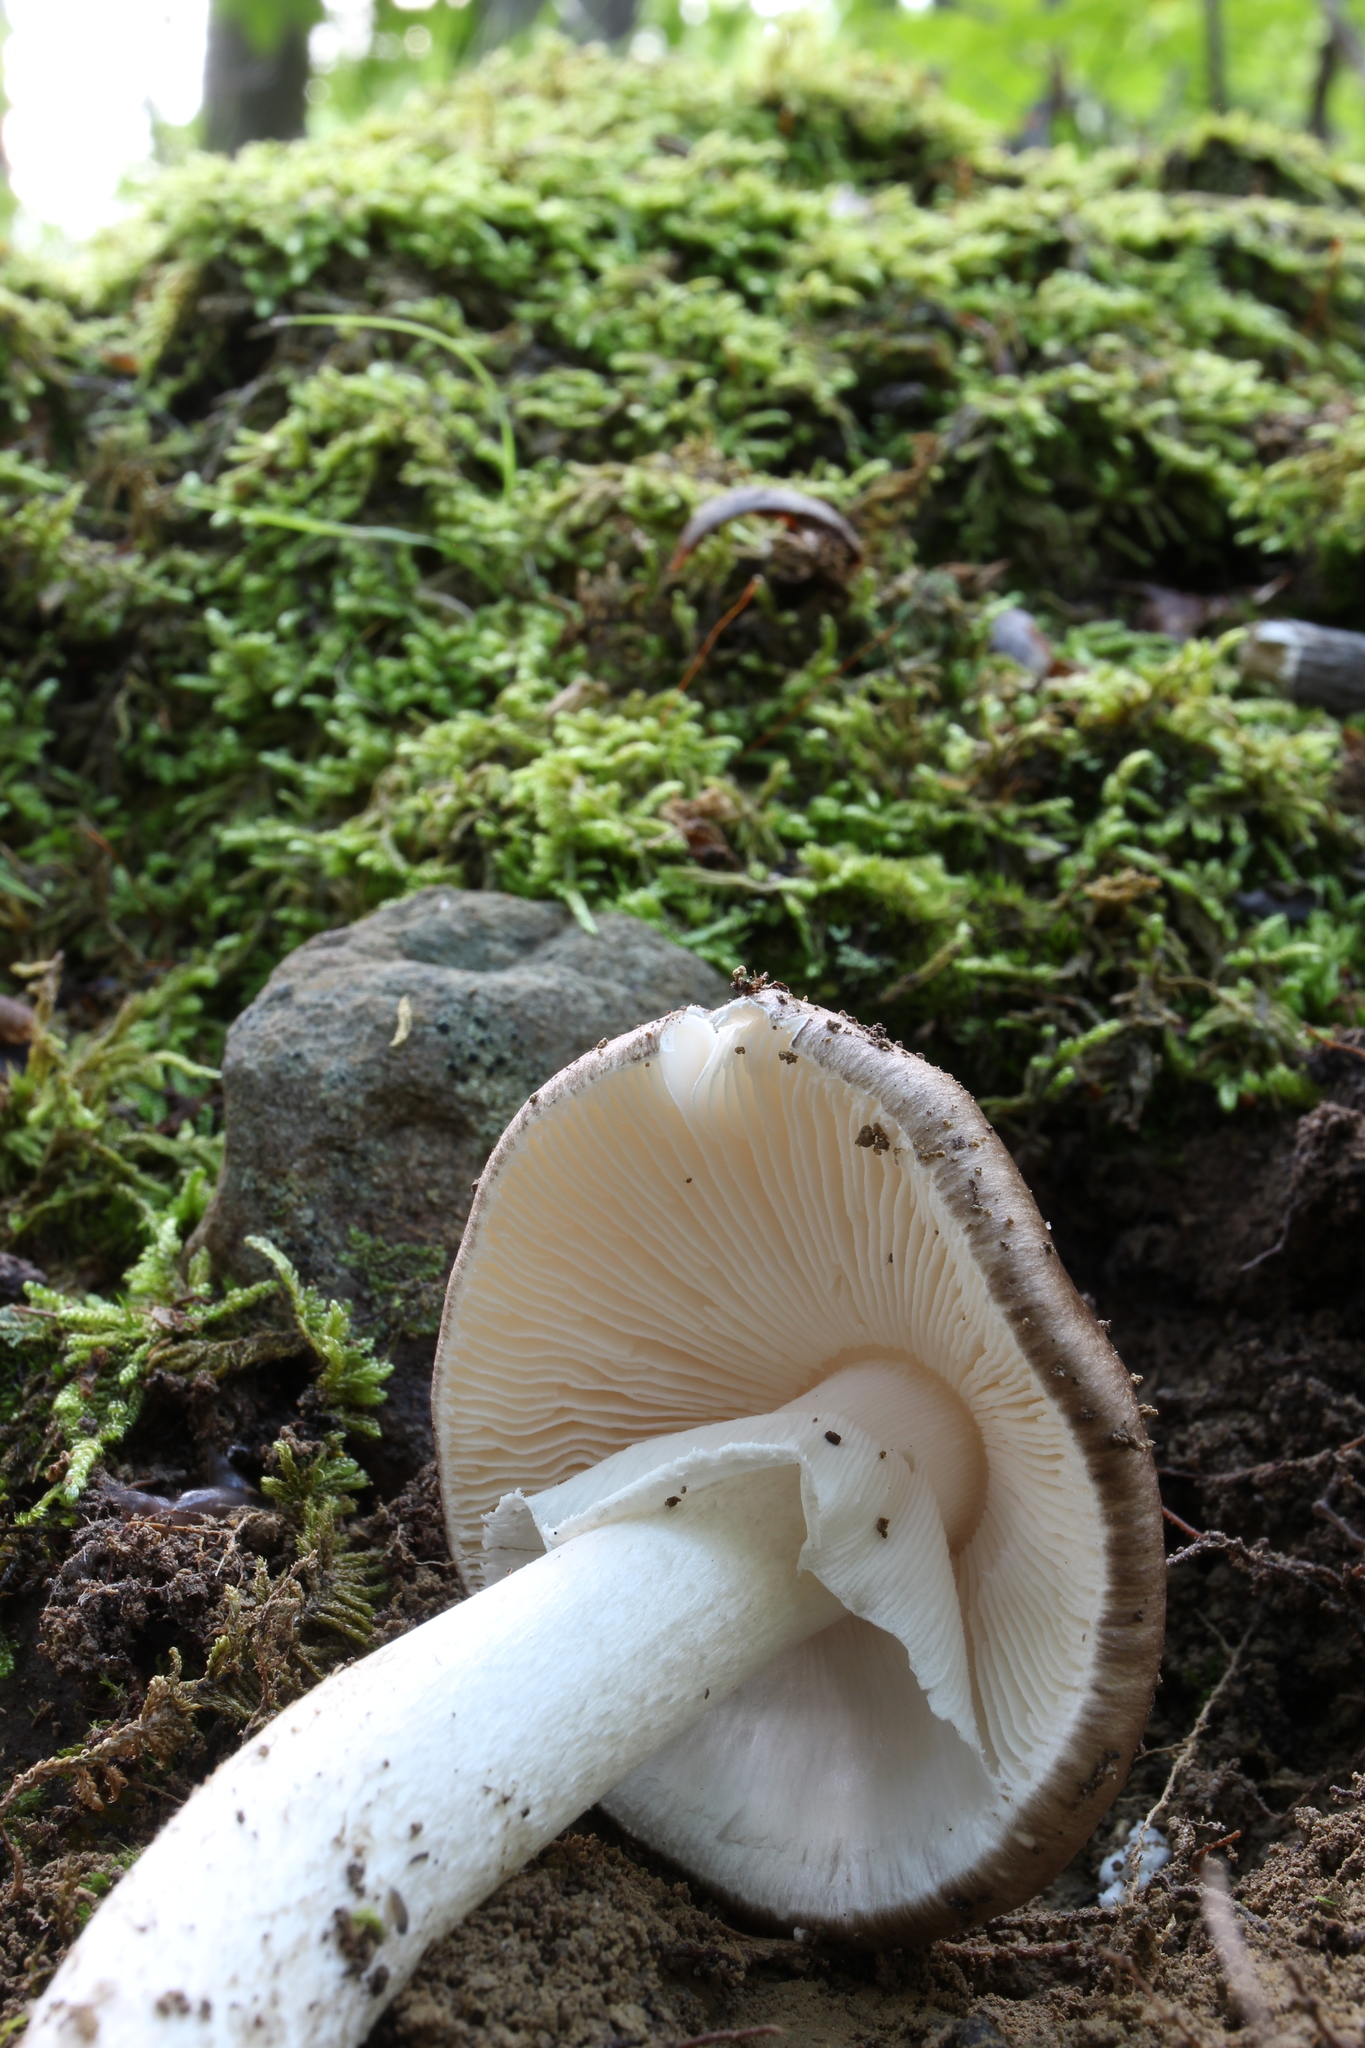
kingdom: Fungi
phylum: Basidiomycota
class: Agaricomycetes
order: Agaricales
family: Amanitaceae
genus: Amanita
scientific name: Amanita submaculata
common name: Ball gown amanita
